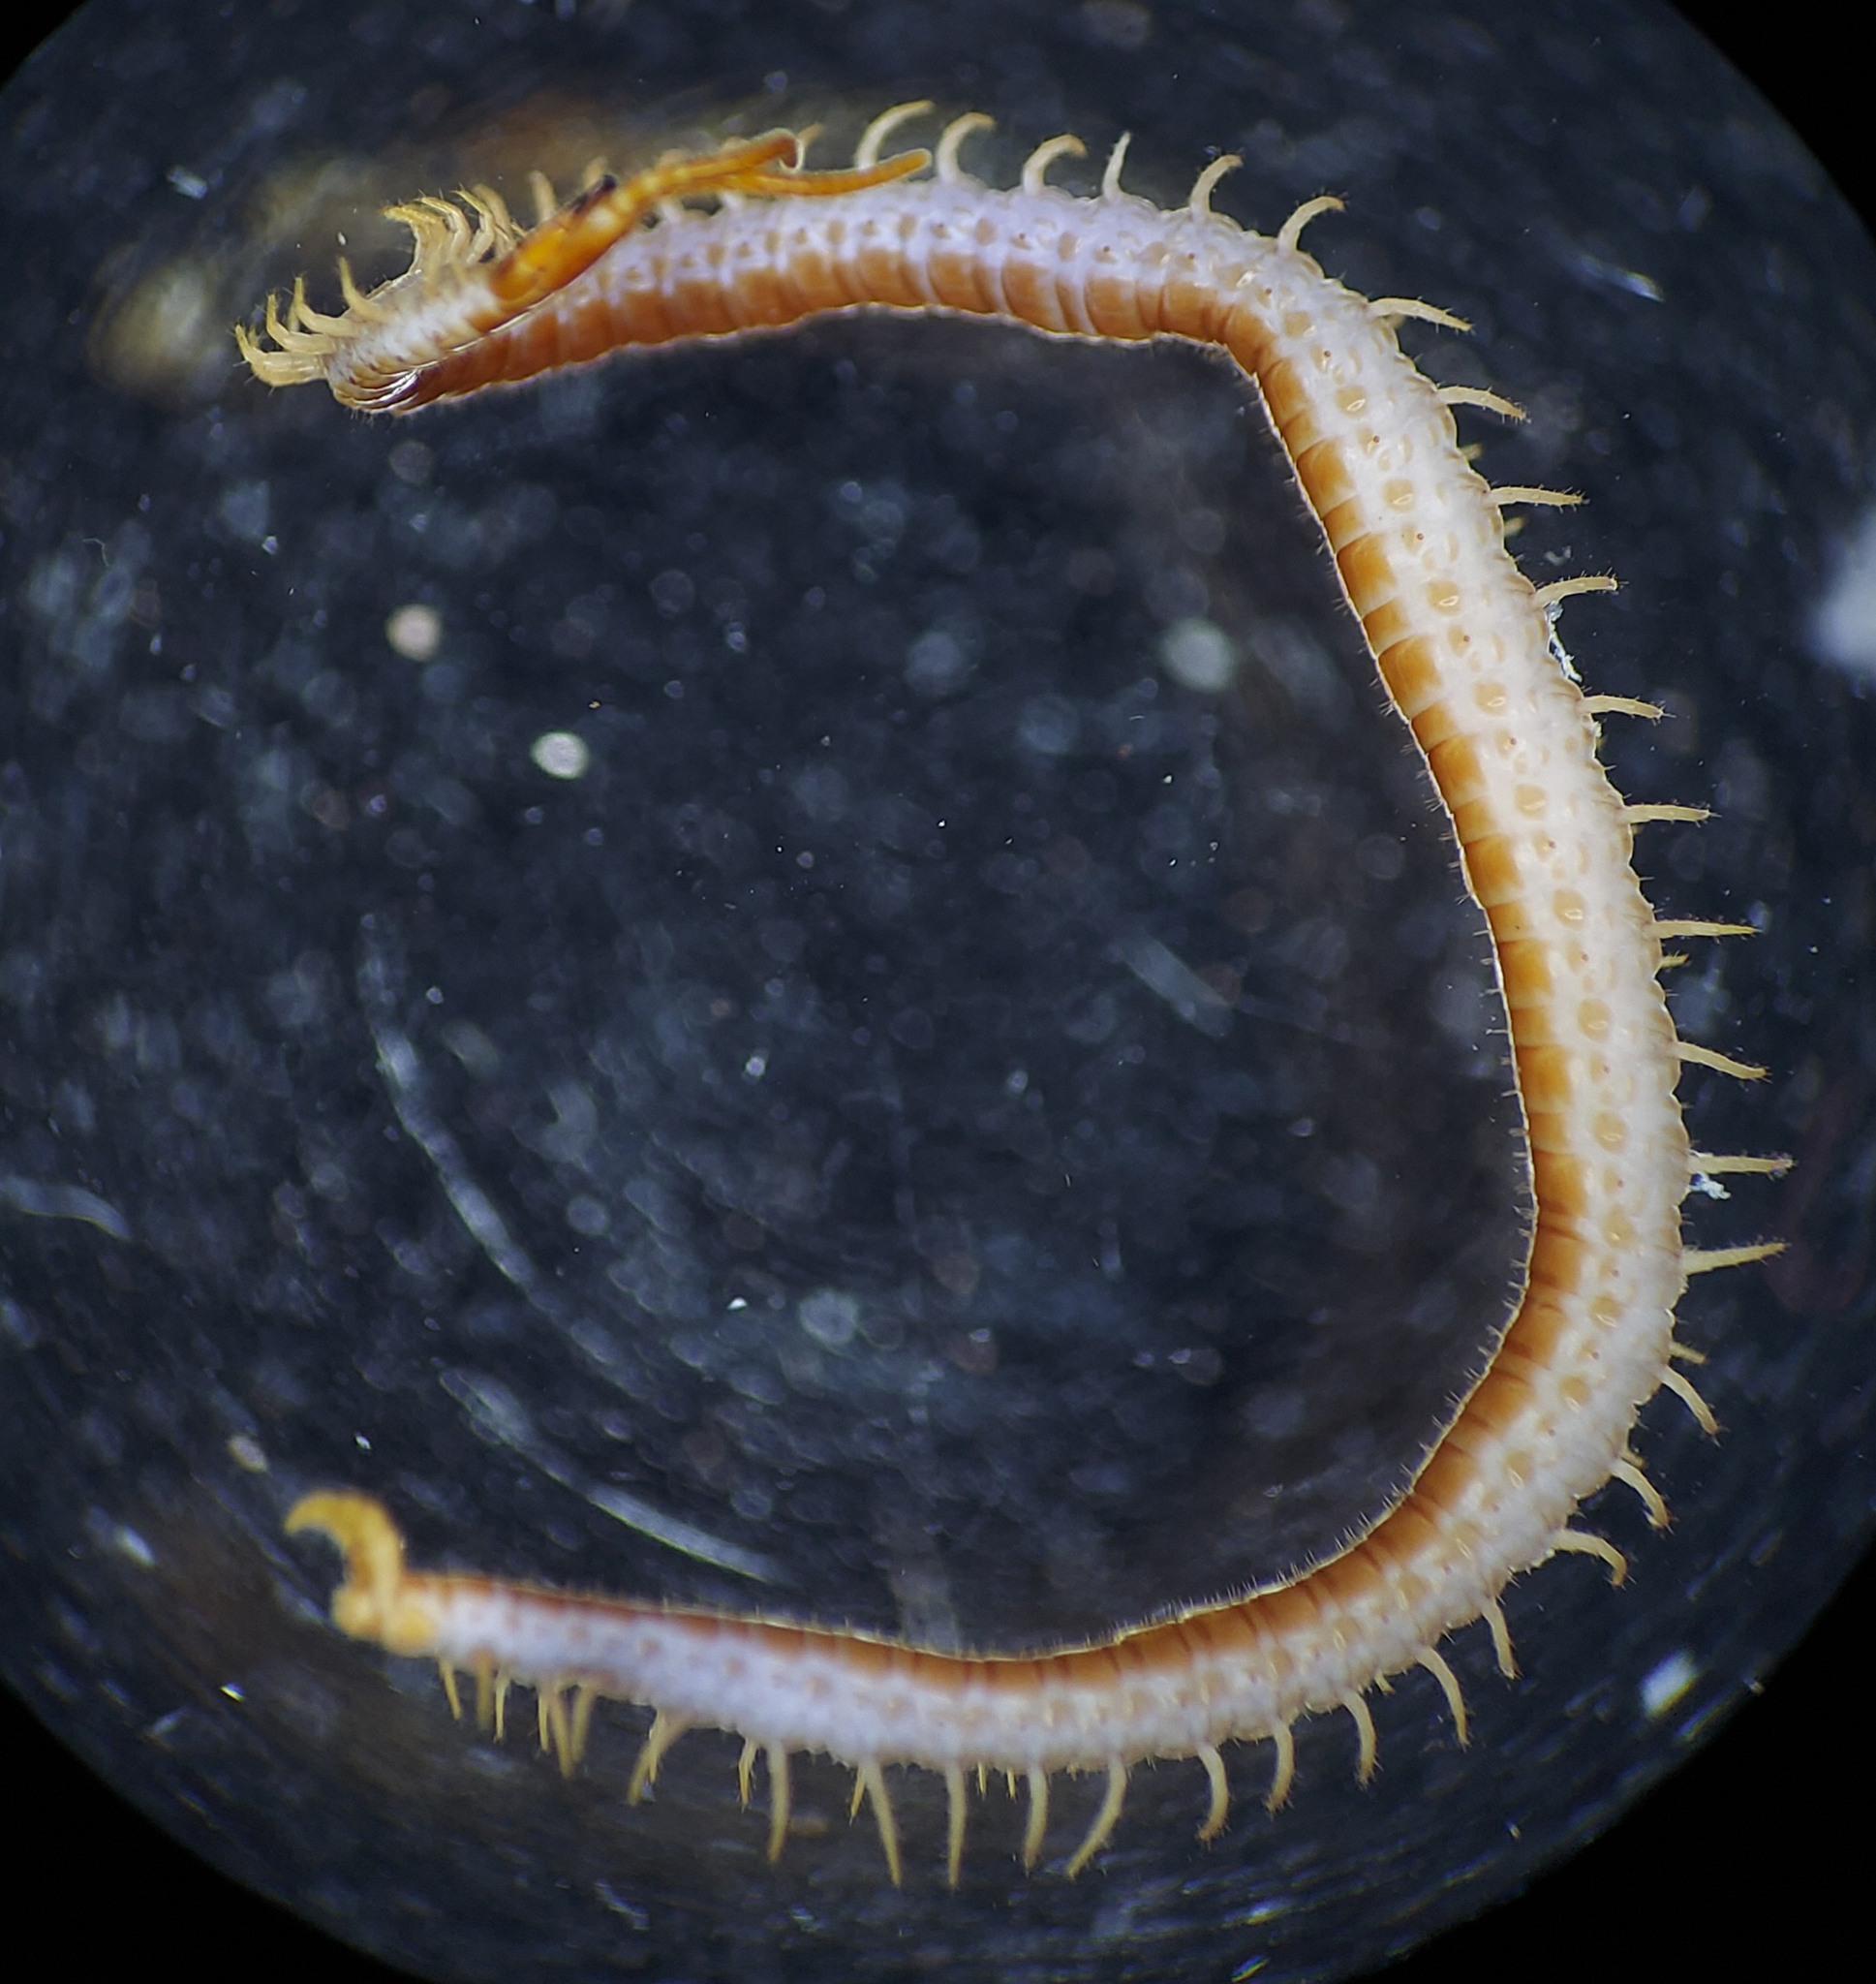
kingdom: Animalia
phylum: Arthropoda
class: Chilopoda
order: Geophilomorpha
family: Geophilidae
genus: Geophilus
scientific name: Geophilus virginiensis
